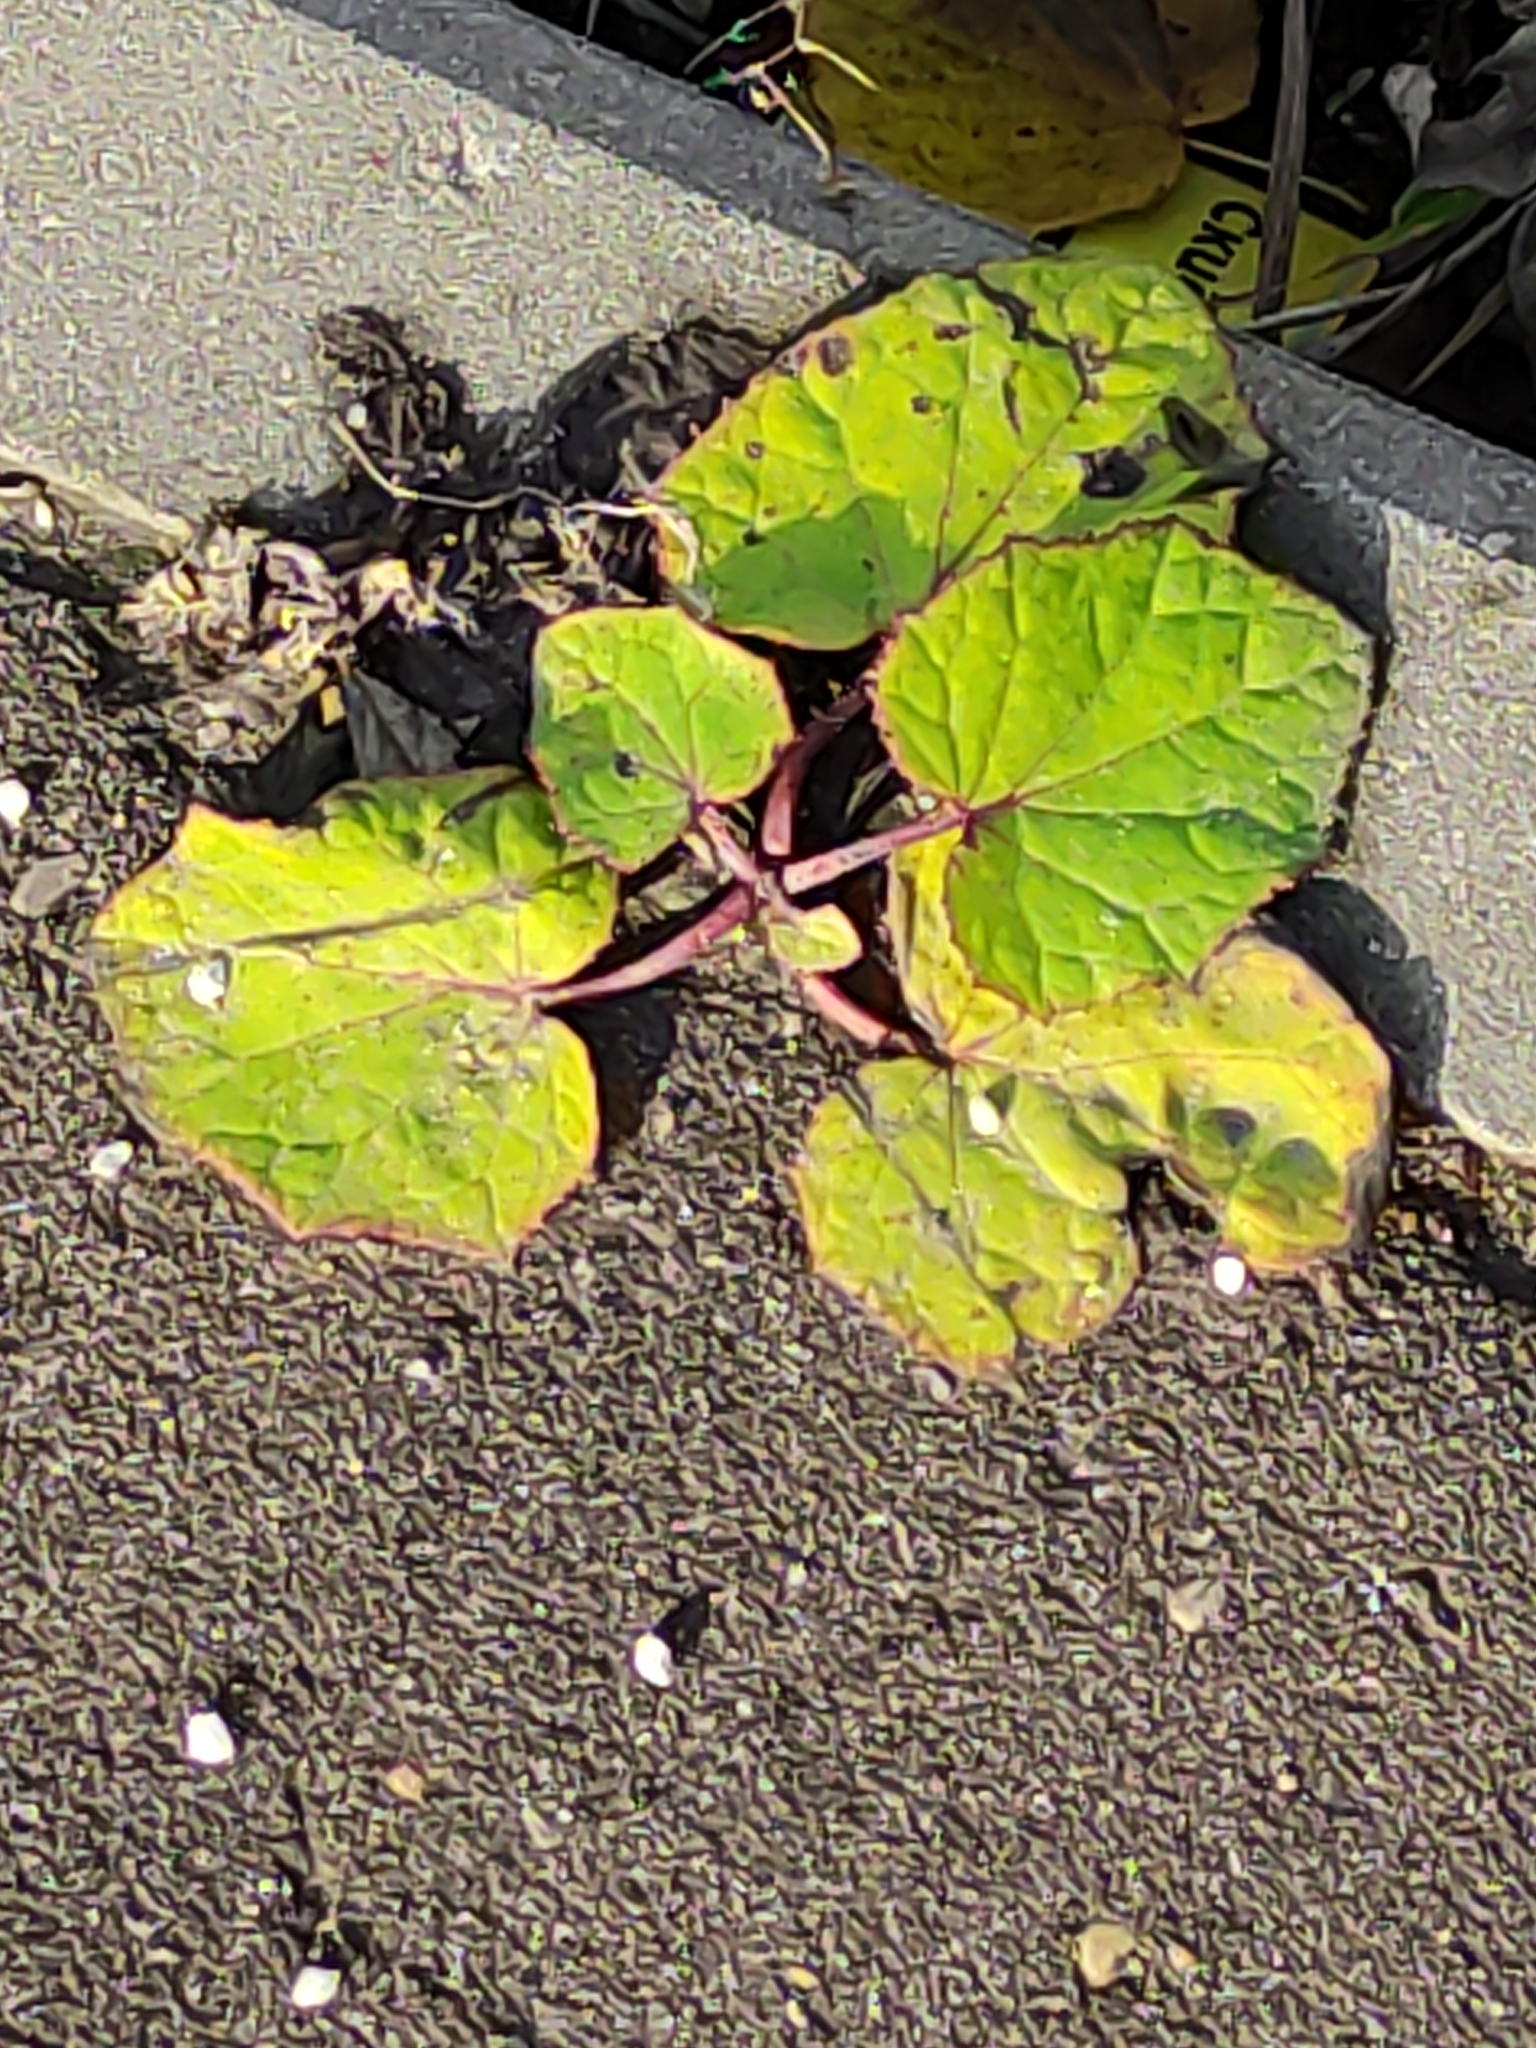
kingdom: Plantae
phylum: Tracheophyta
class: Magnoliopsida
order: Asterales
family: Asteraceae
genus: Tussilago
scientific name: Tussilago farfara
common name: Coltsfoot
